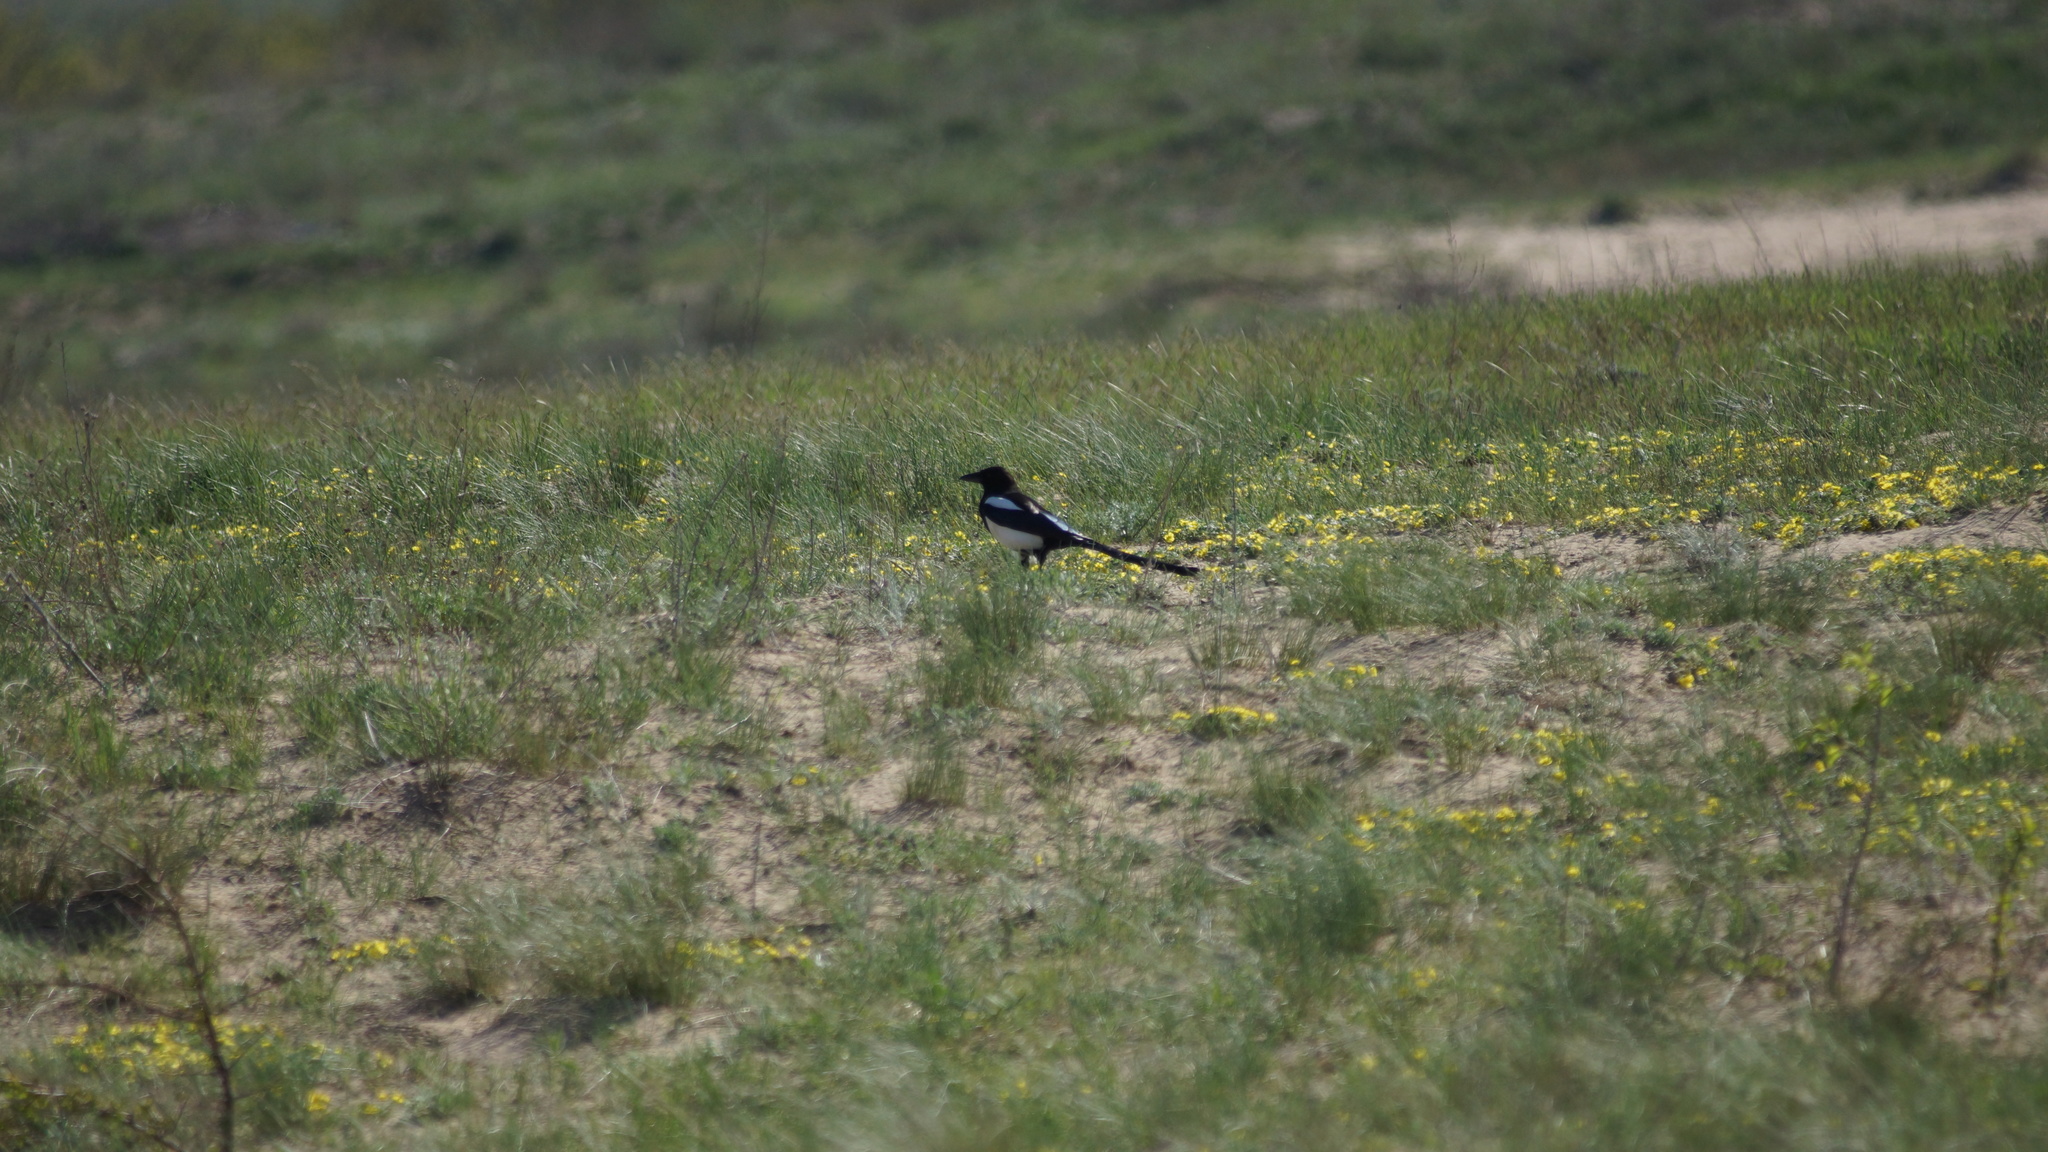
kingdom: Animalia
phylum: Chordata
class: Aves
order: Passeriformes
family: Corvidae
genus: Pica
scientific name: Pica pica
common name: Eurasian magpie
